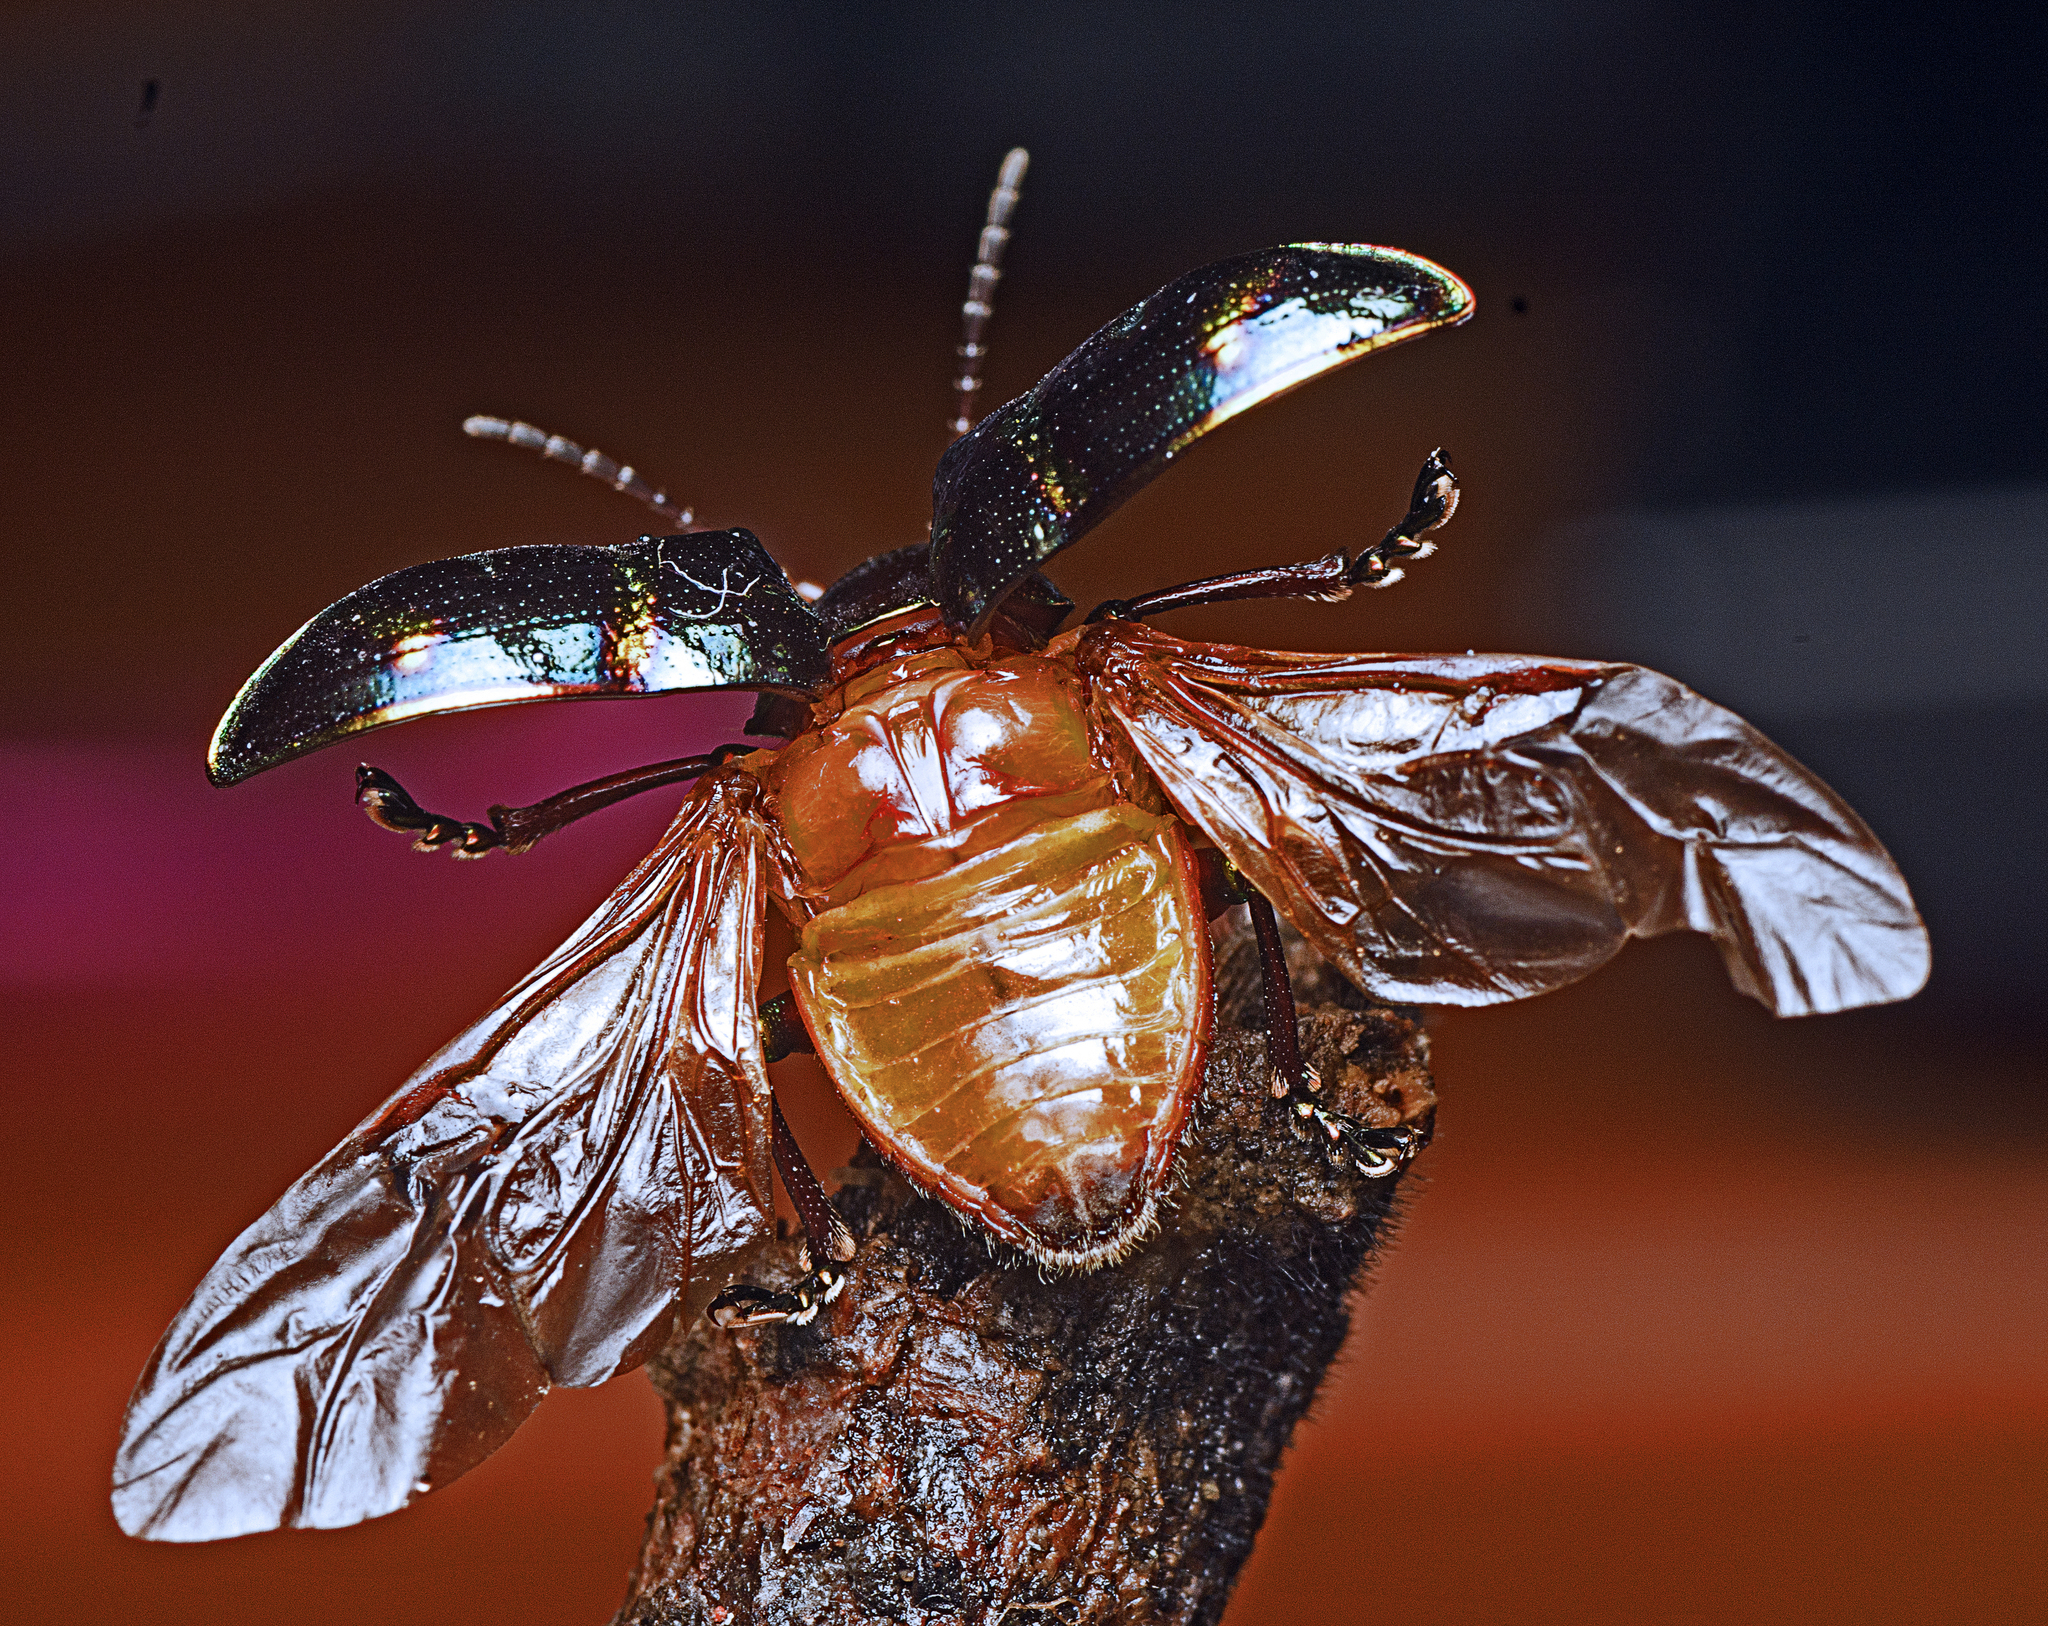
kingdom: Animalia
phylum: Arthropoda
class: Insecta
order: Coleoptera
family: Chrysomelidae
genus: Spilopyra
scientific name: Spilopyra
